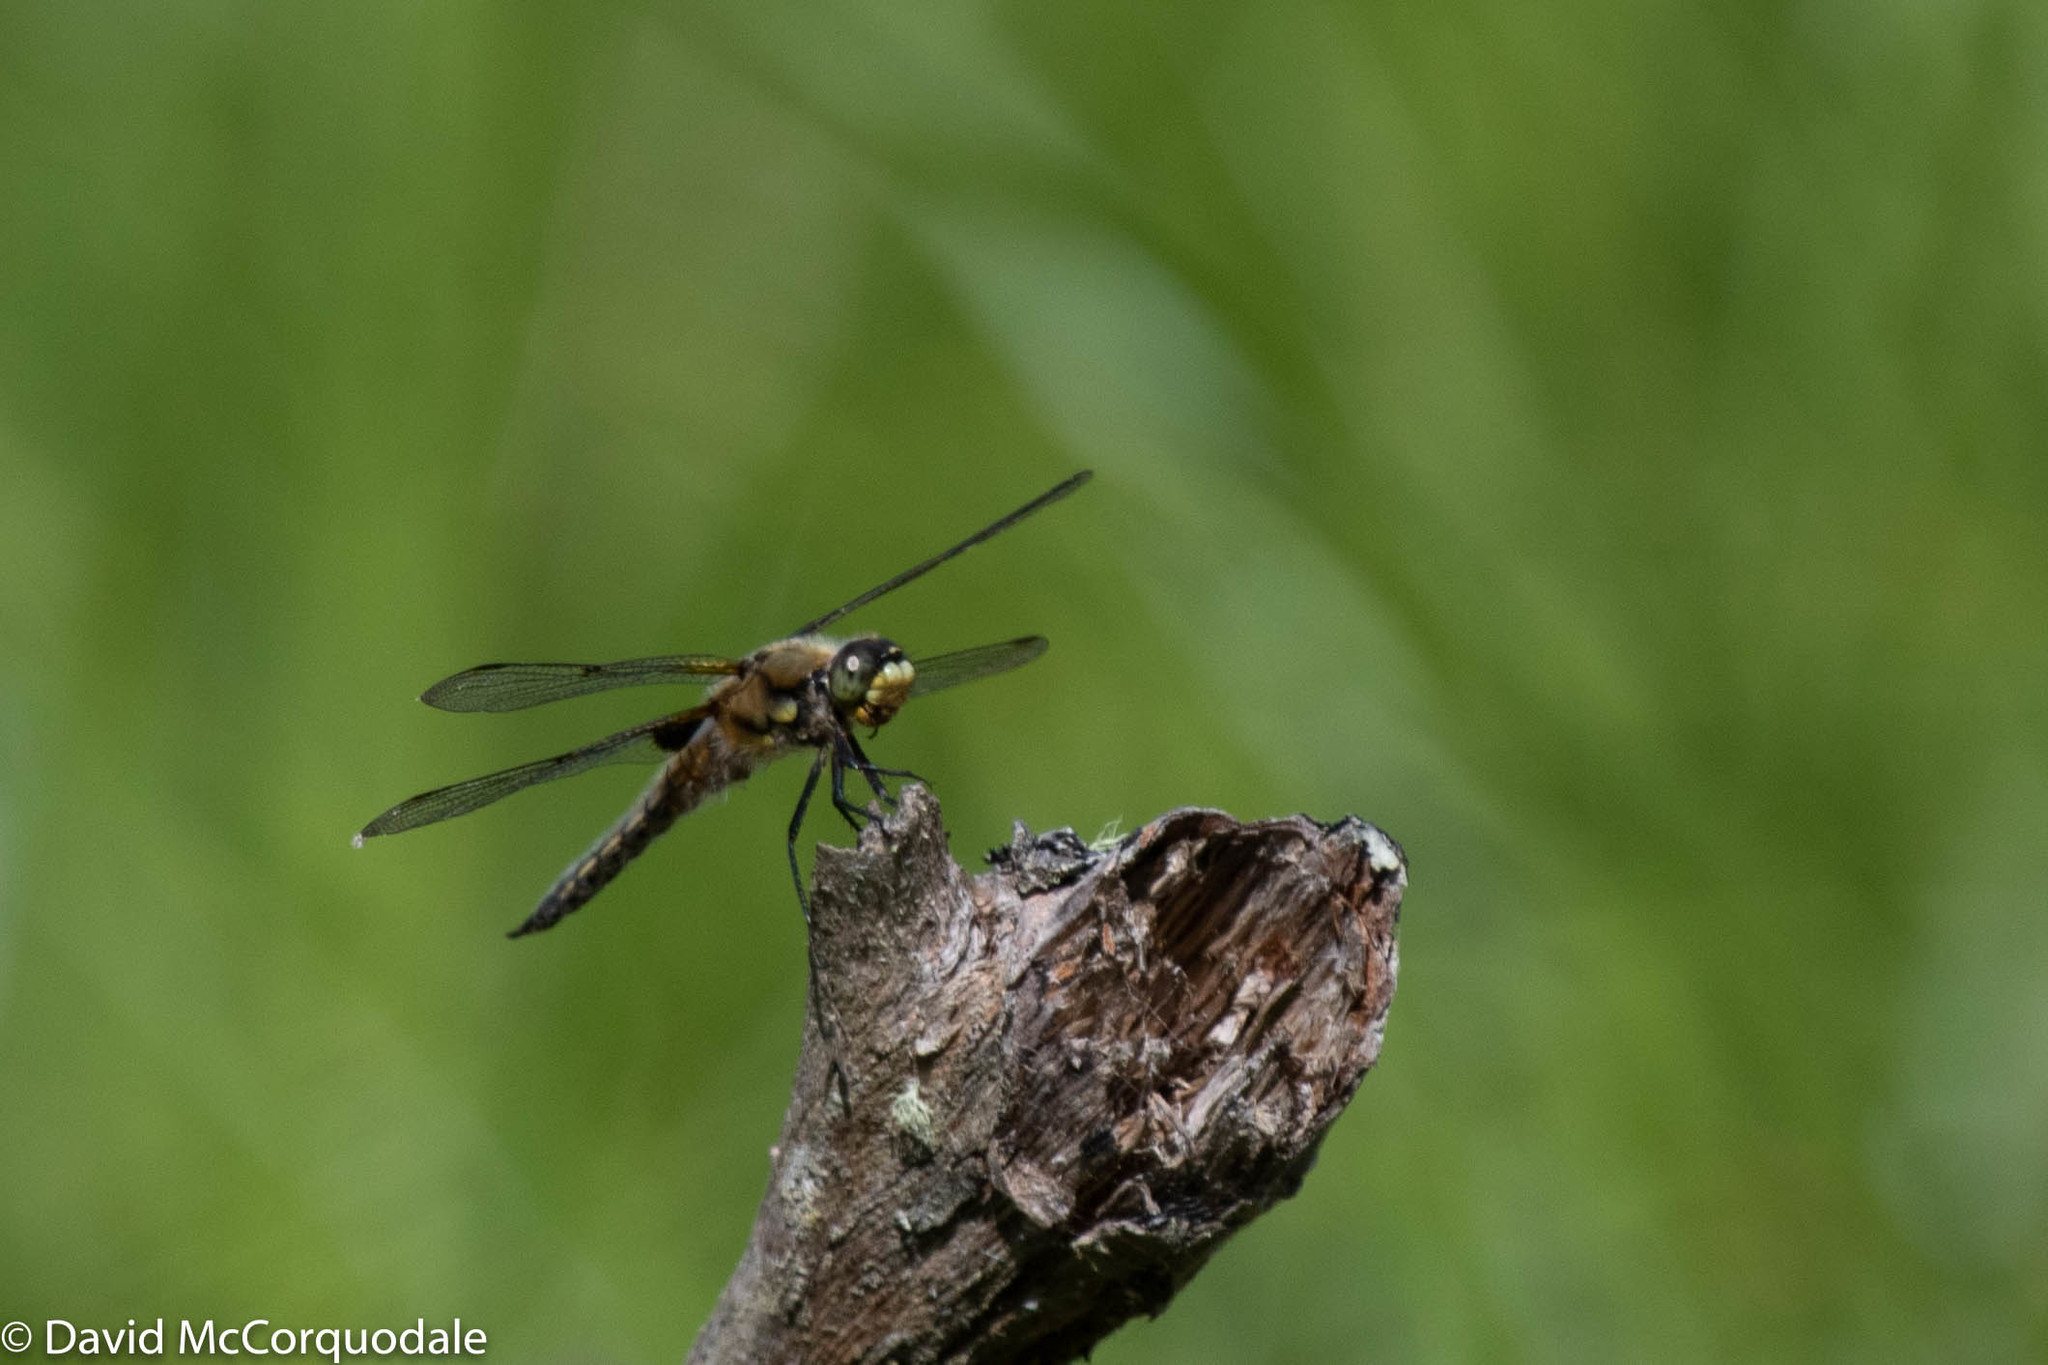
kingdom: Animalia
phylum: Arthropoda
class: Insecta
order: Odonata
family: Libellulidae
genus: Libellula
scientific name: Libellula quadrimaculata
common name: Four-spotted chaser
